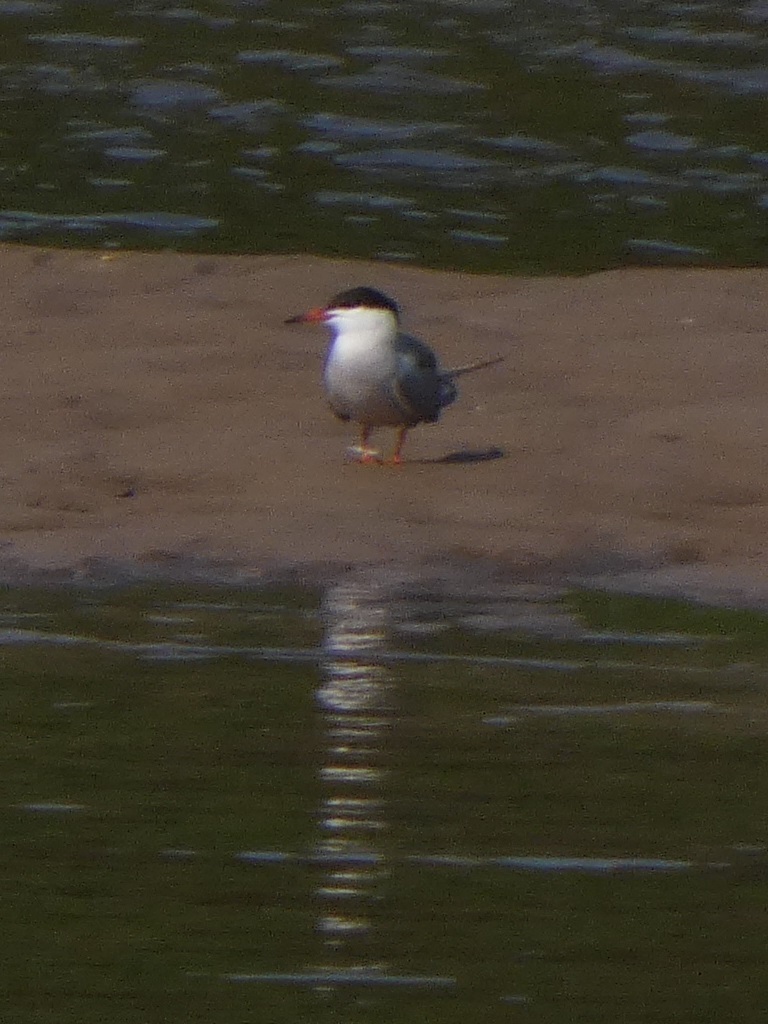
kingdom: Animalia
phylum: Chordata
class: Aves
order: Charadriiformes
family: Laridae
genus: Sterna
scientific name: Sterna hirundo
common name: Common tern
